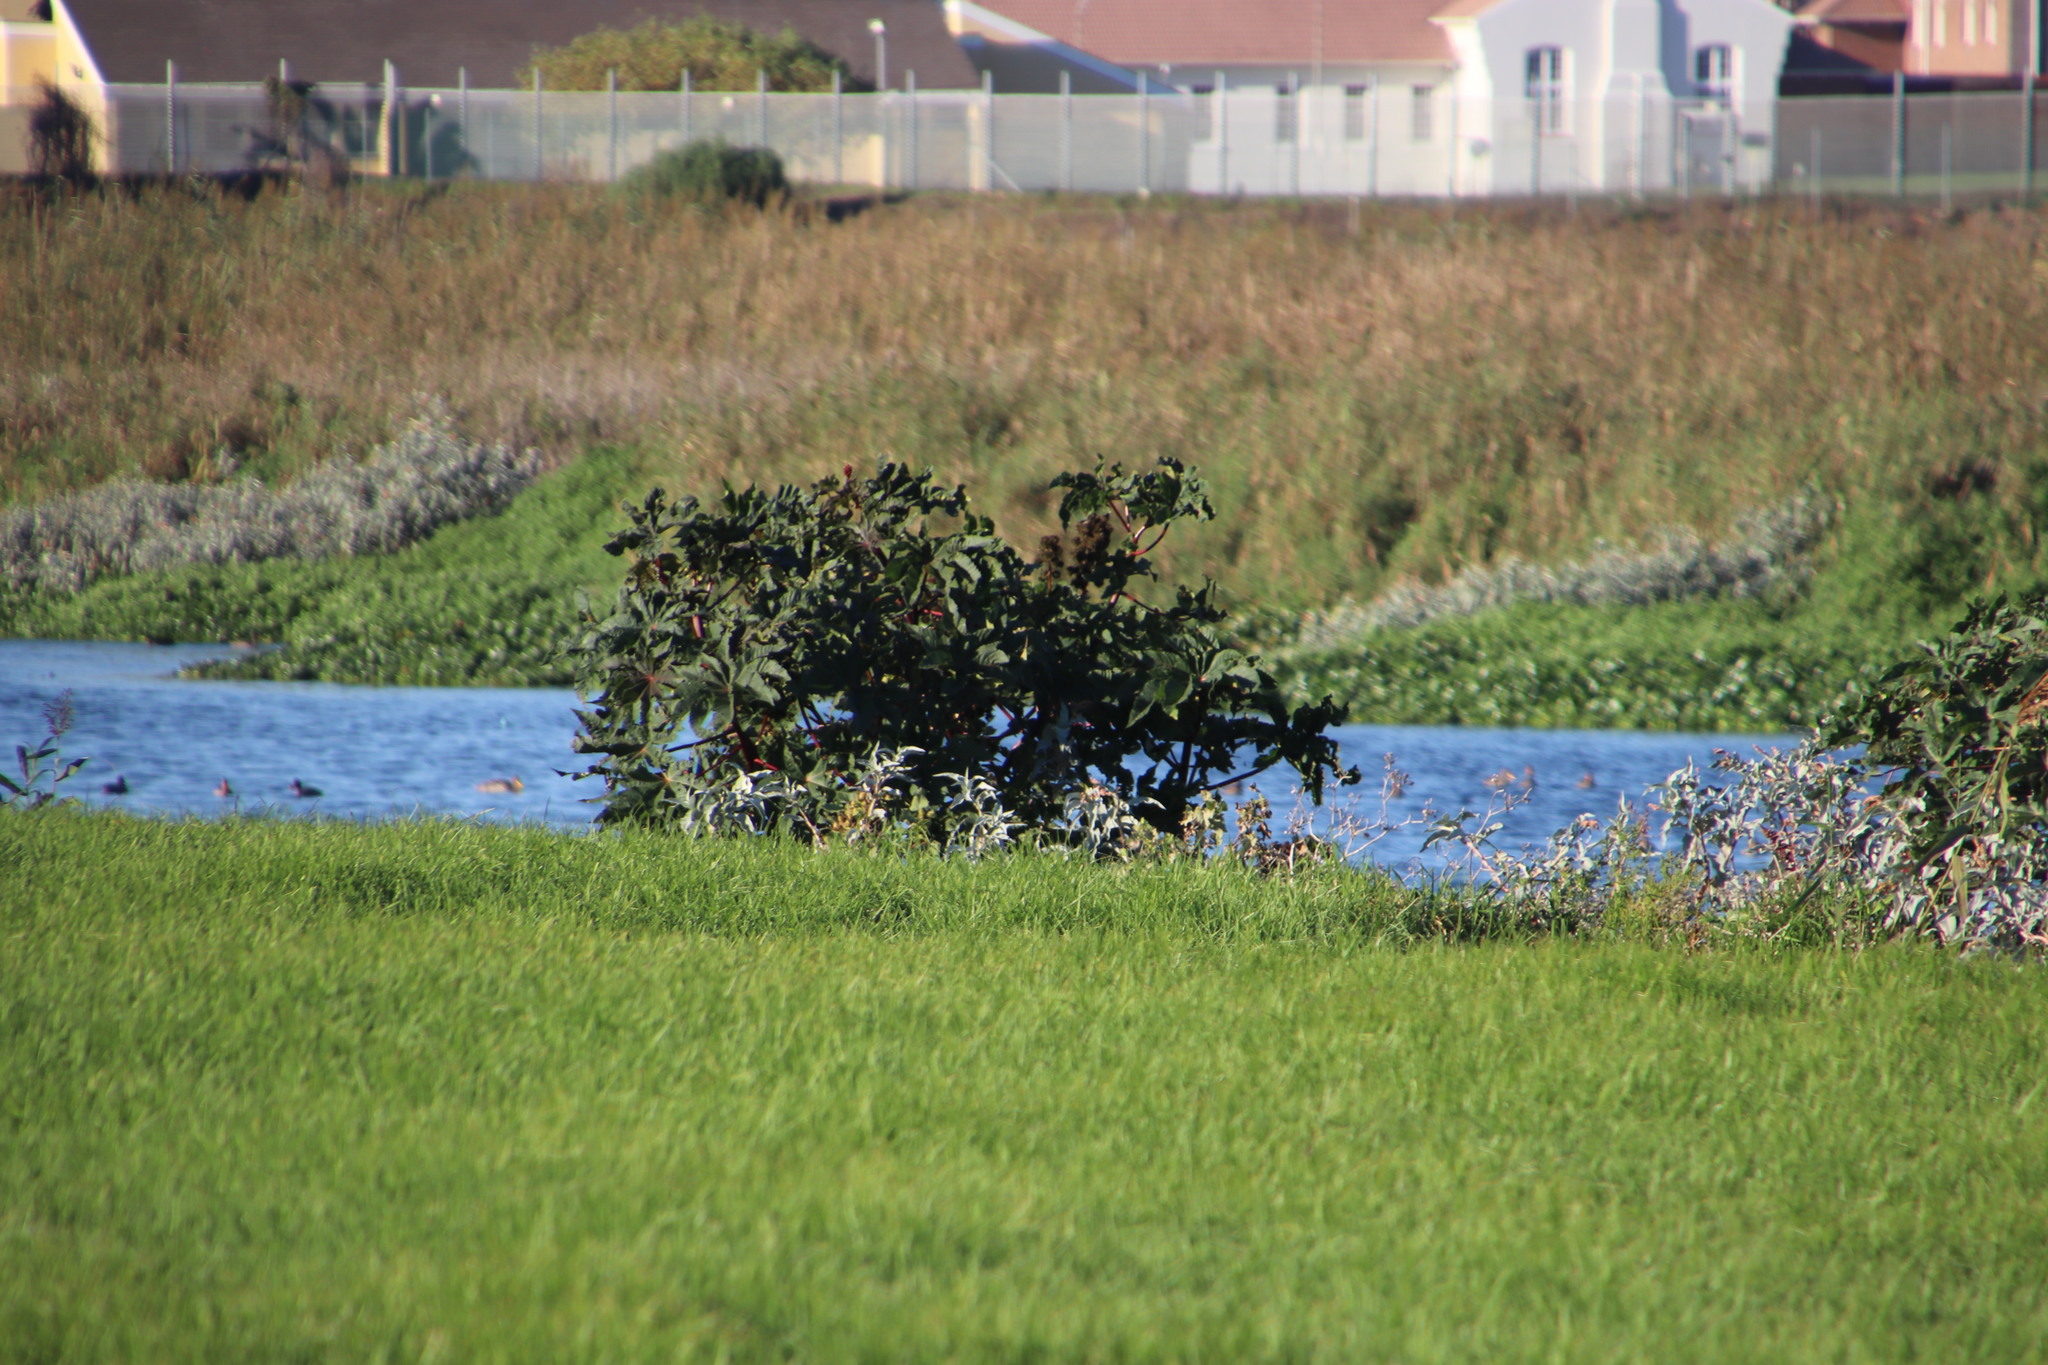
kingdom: Plantae
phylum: Tracheophyta
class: Magnoliopsida
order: Malpighiales
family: Euphorbiaceae
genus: Ricinus
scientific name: Ricinus communis
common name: Castor-oil-plant
